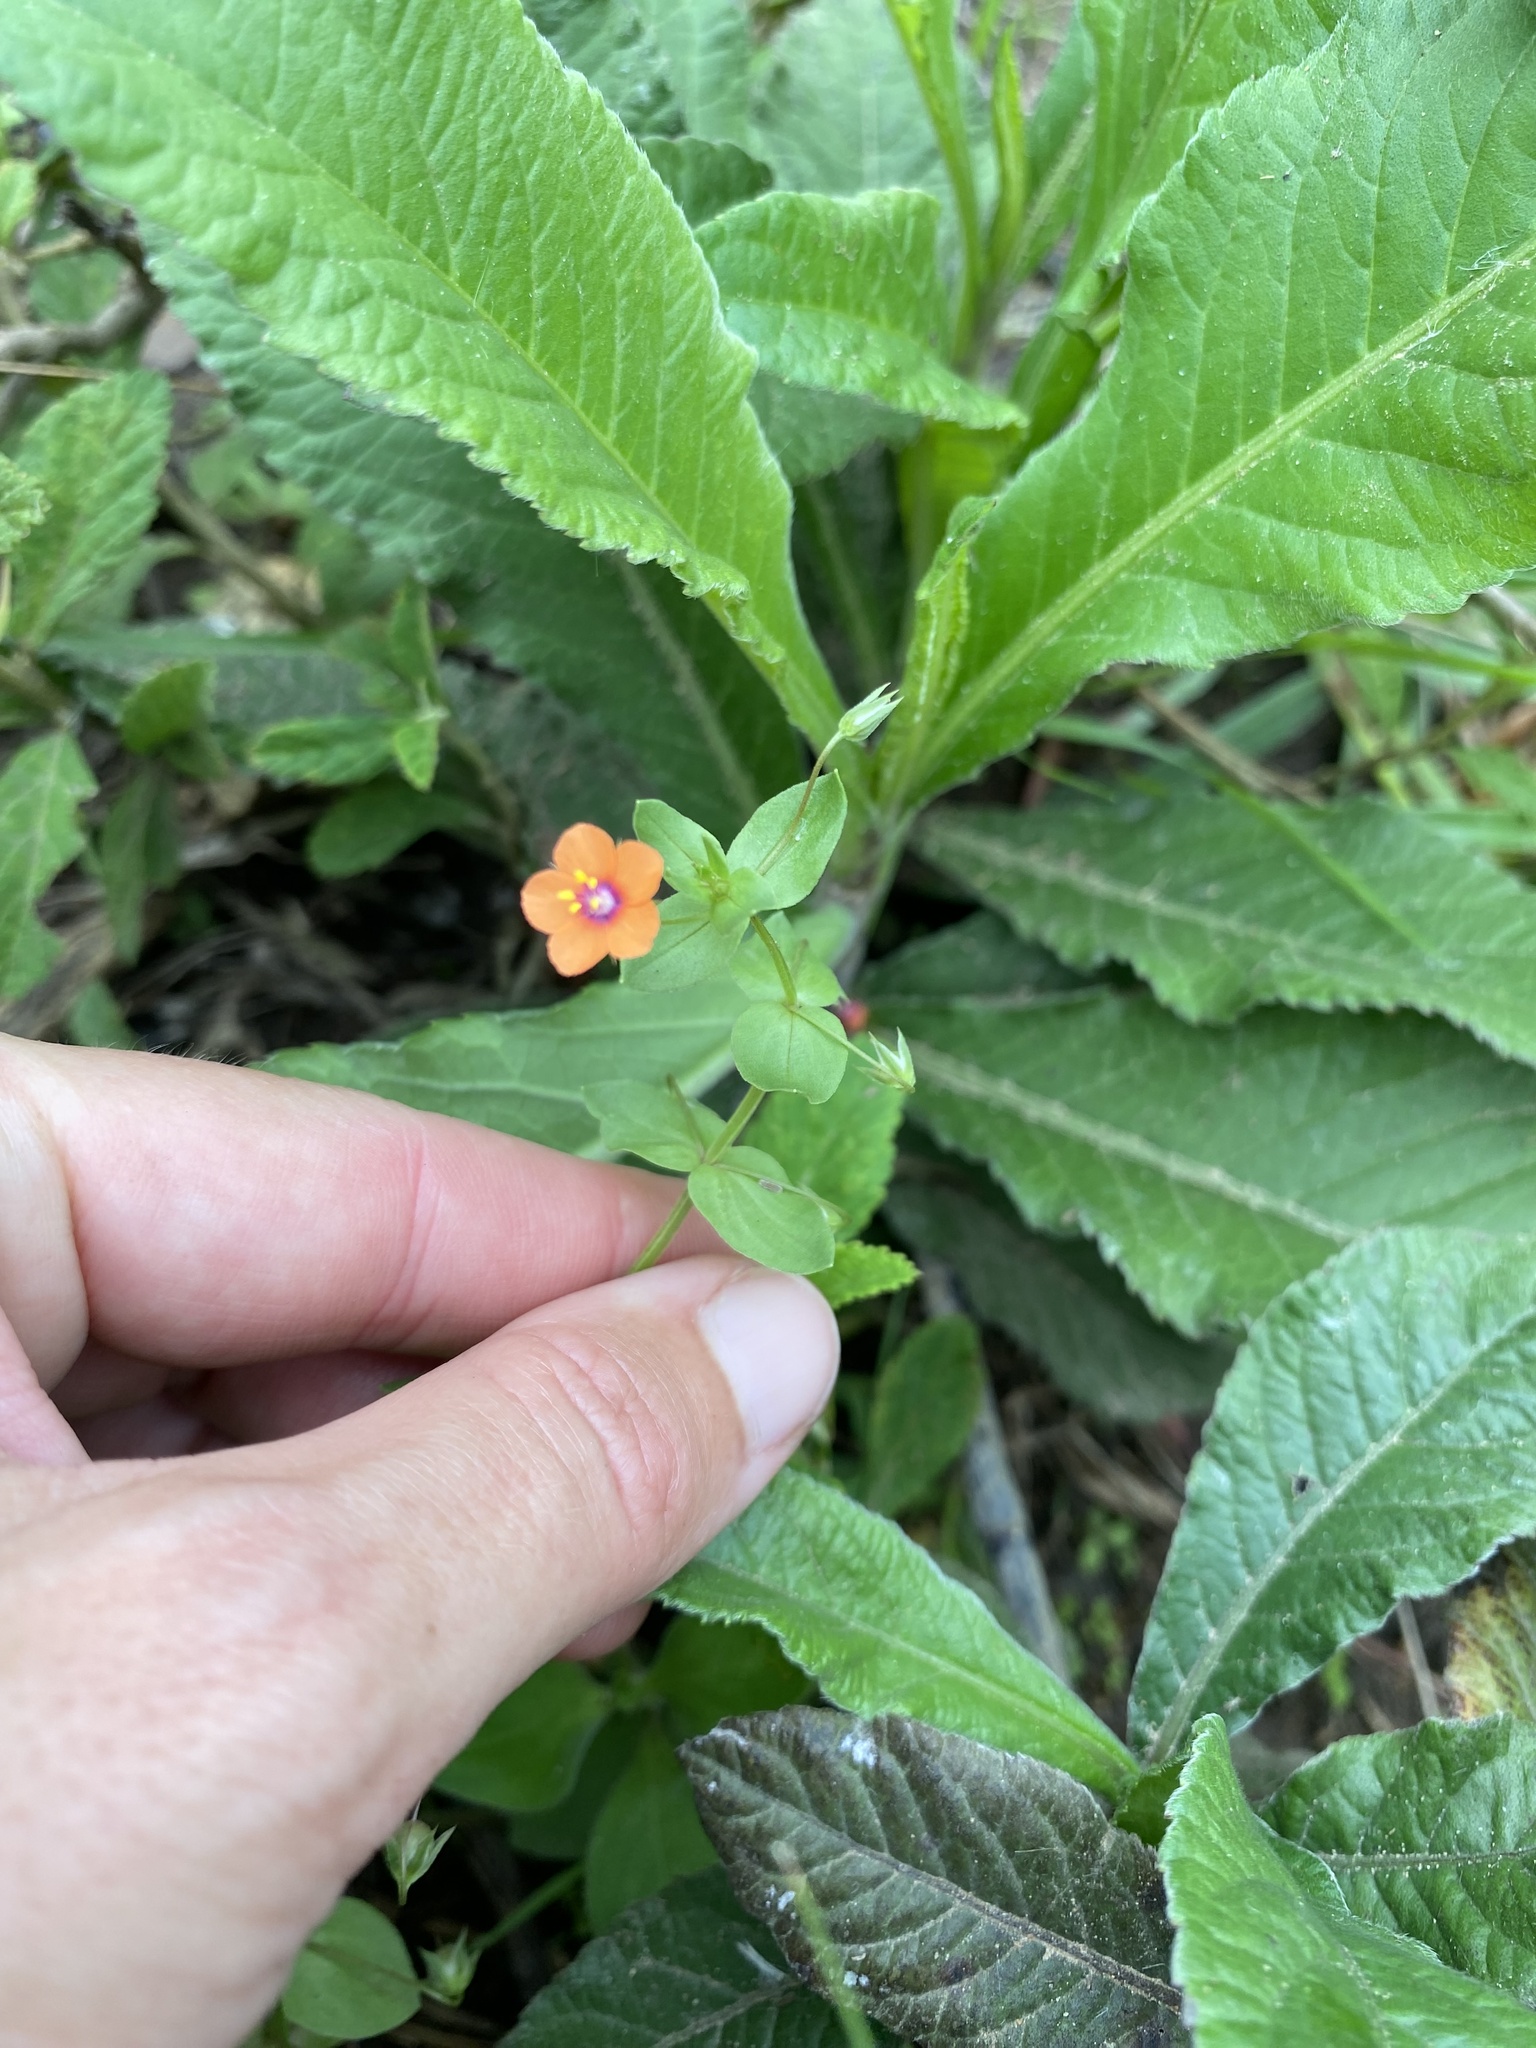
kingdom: Plantae
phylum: Tracheophyta
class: Magnoliopsida
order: Ericales
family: Primulaceae
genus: Lysimachia
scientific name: Lysimachia arvensis
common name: Scarlet pimpernel
